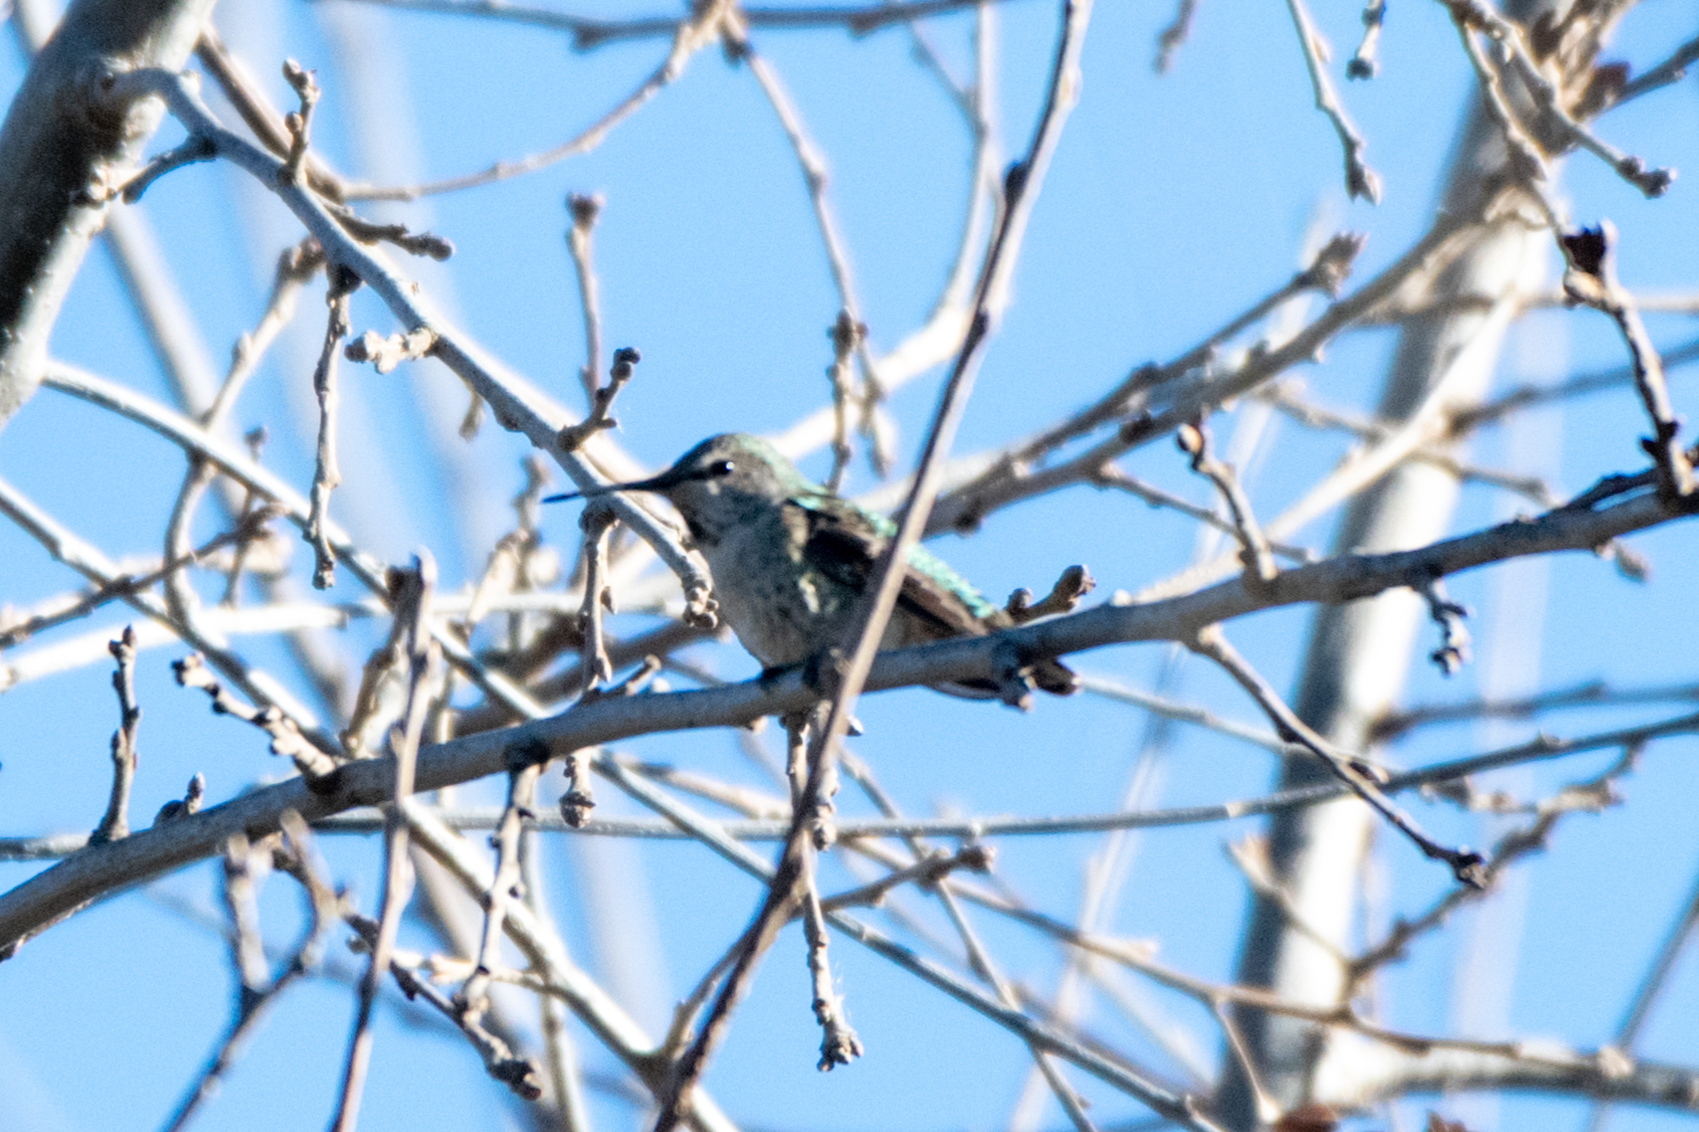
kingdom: Animalia
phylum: Chordata
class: Aves
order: Apodiformes
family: Trochilidae
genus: Calypte
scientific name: Calypte anna
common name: Anna's hummingbird
